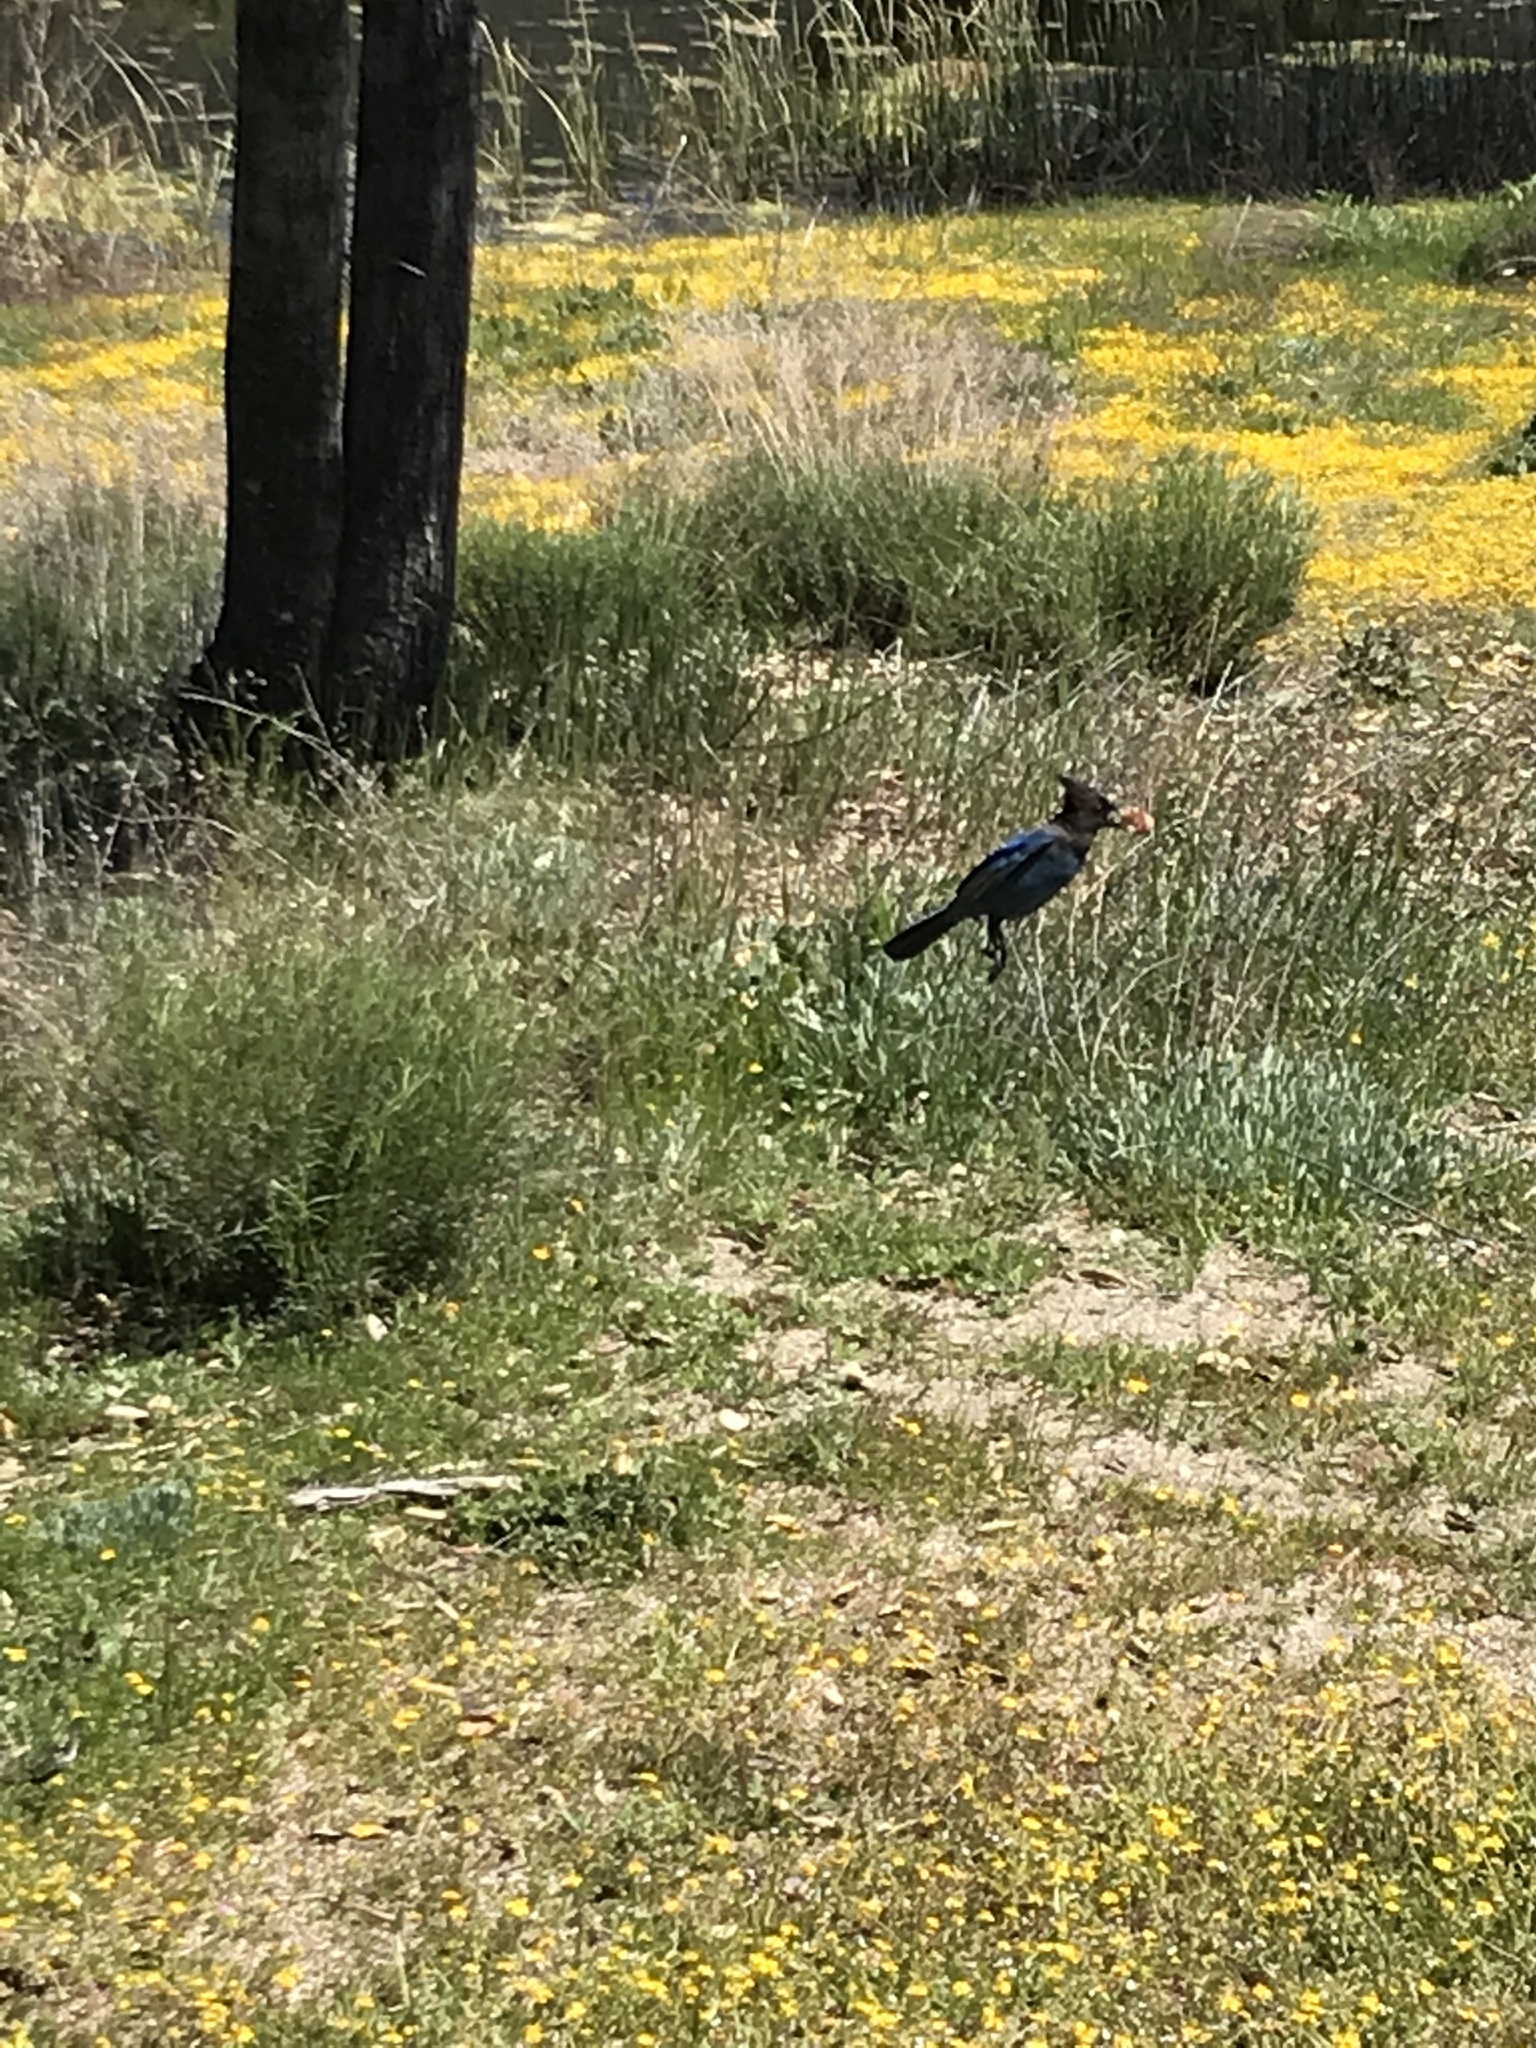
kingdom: Animalia
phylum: Chordata
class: Aves
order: Passeriformes
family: Corvidae
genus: Cyanocitta
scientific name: Cyanocitta stelleri
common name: Steller's jay
